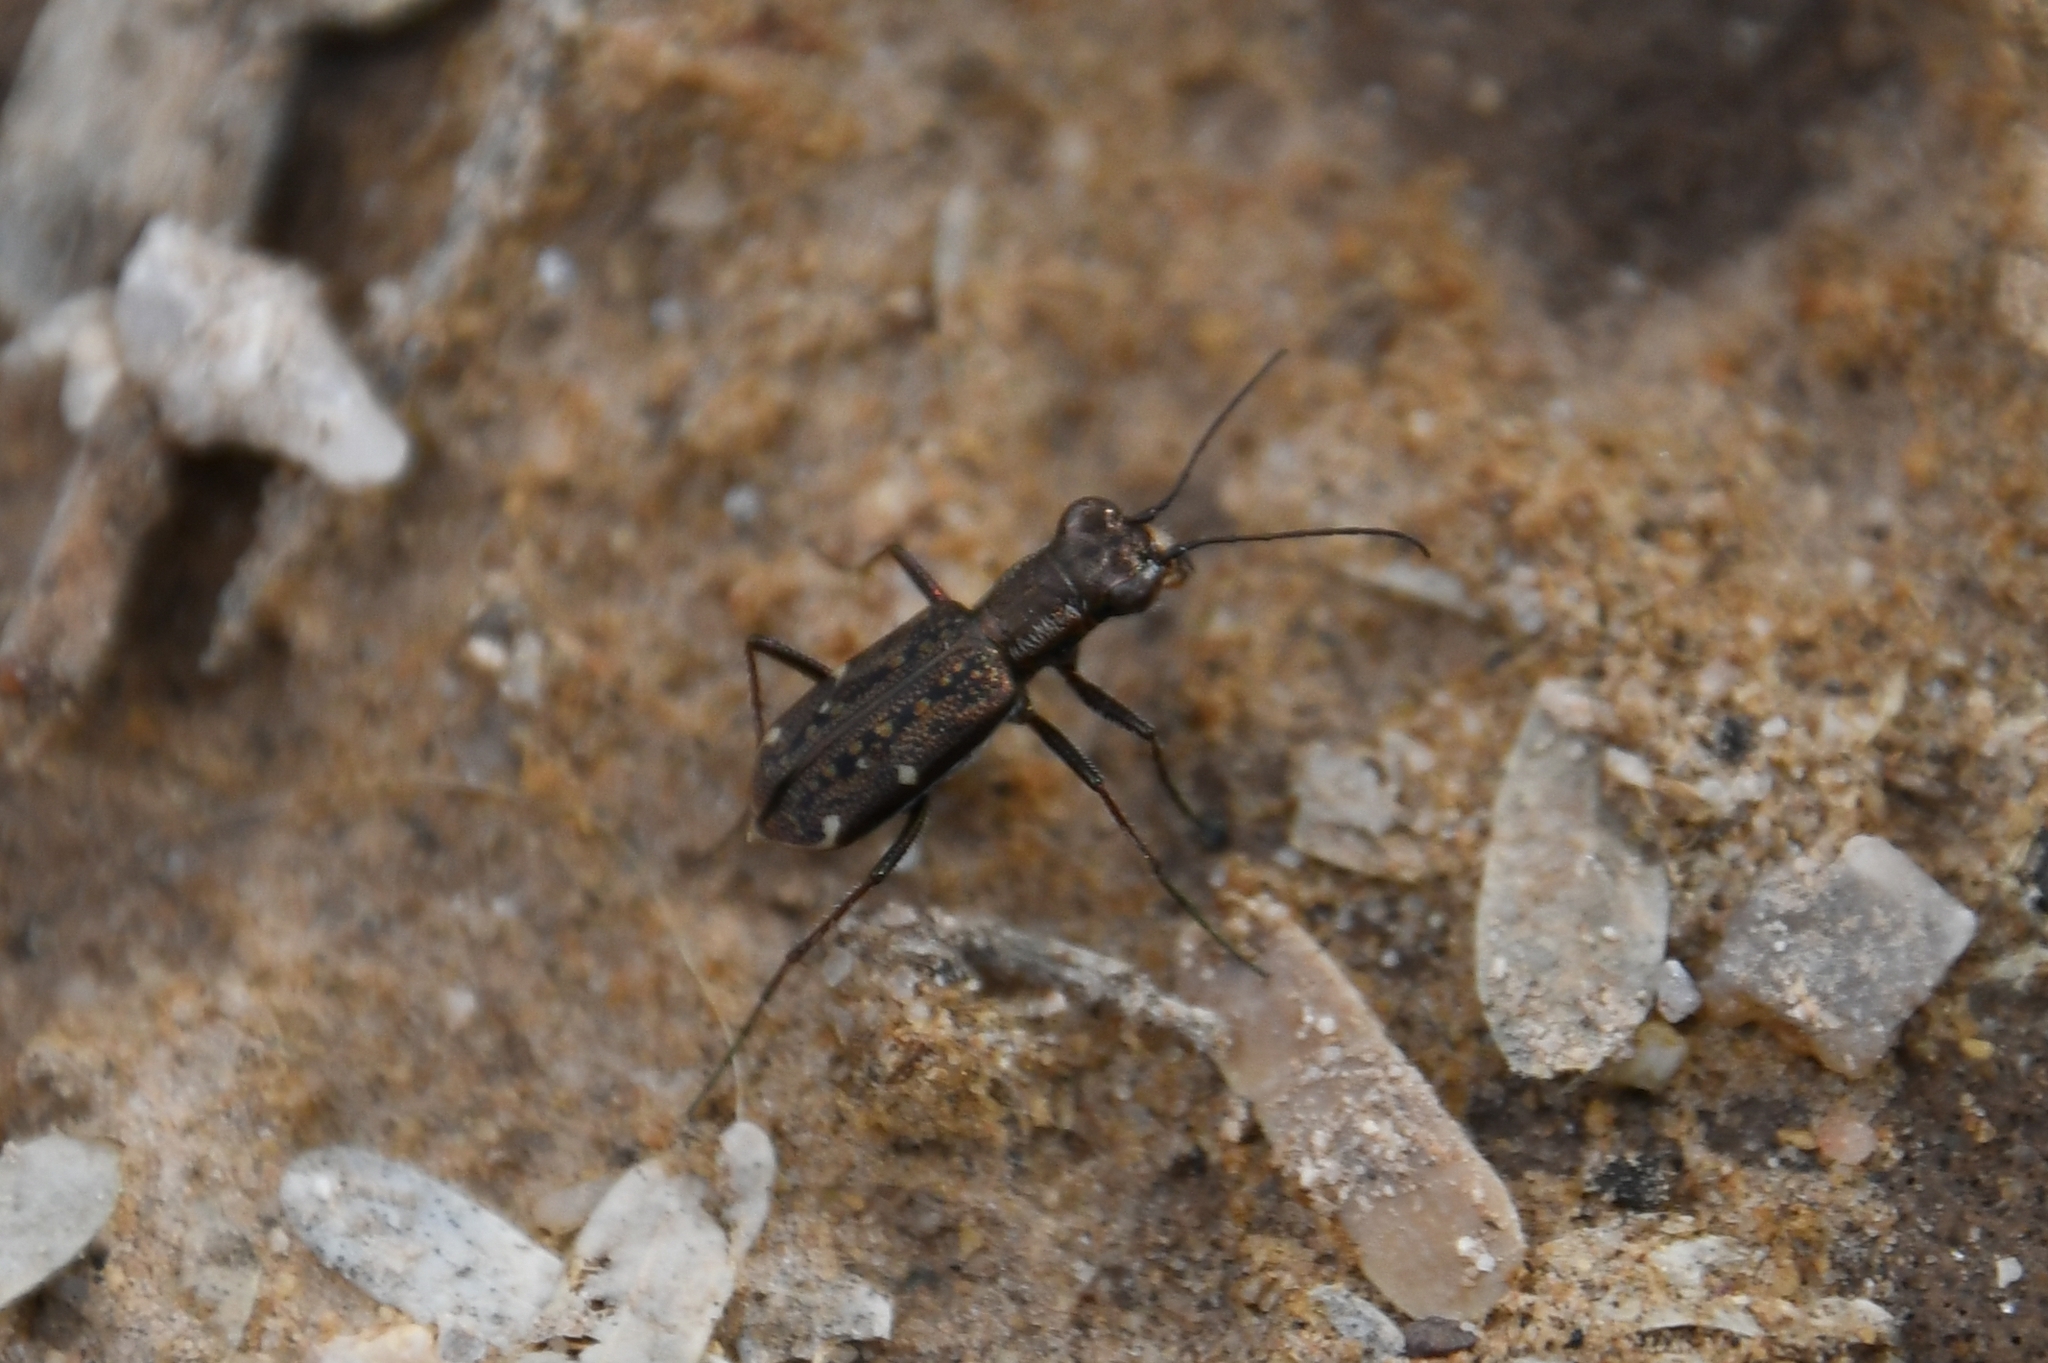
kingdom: Animalia
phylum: Arthropoda
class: Insecta
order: Coleoptera
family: Carabidae
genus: Brasiella
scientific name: Brasiella viridisticta
